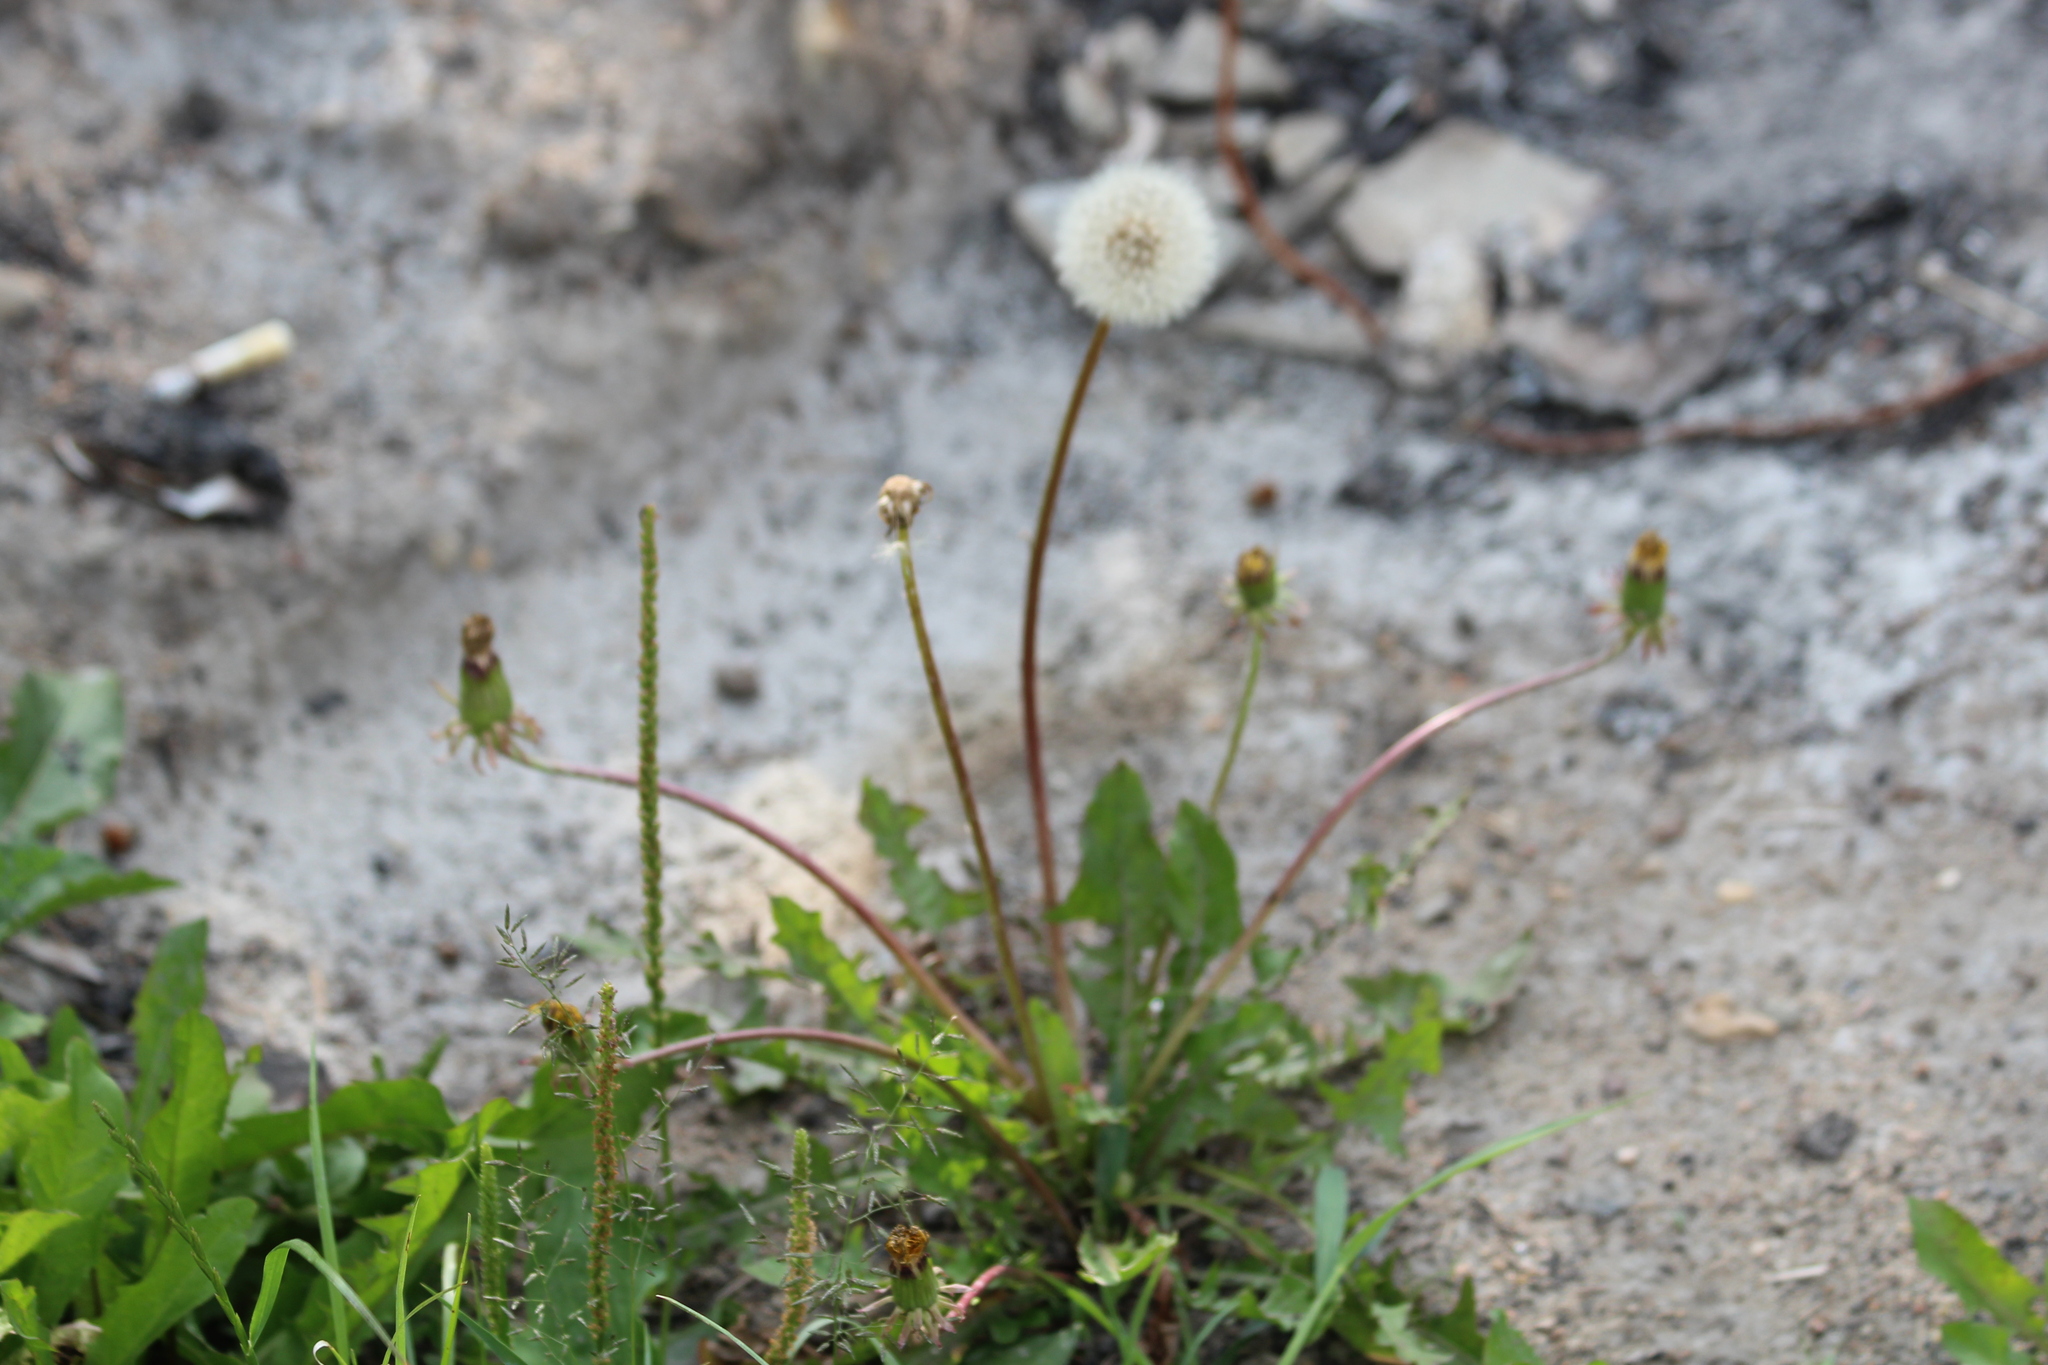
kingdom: Plantae
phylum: Tracheophyta
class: Magnoliopsida
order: Asterales
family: Asteraceae
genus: Taraxacum
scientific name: Taraxacum officinale
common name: Common dandelion
